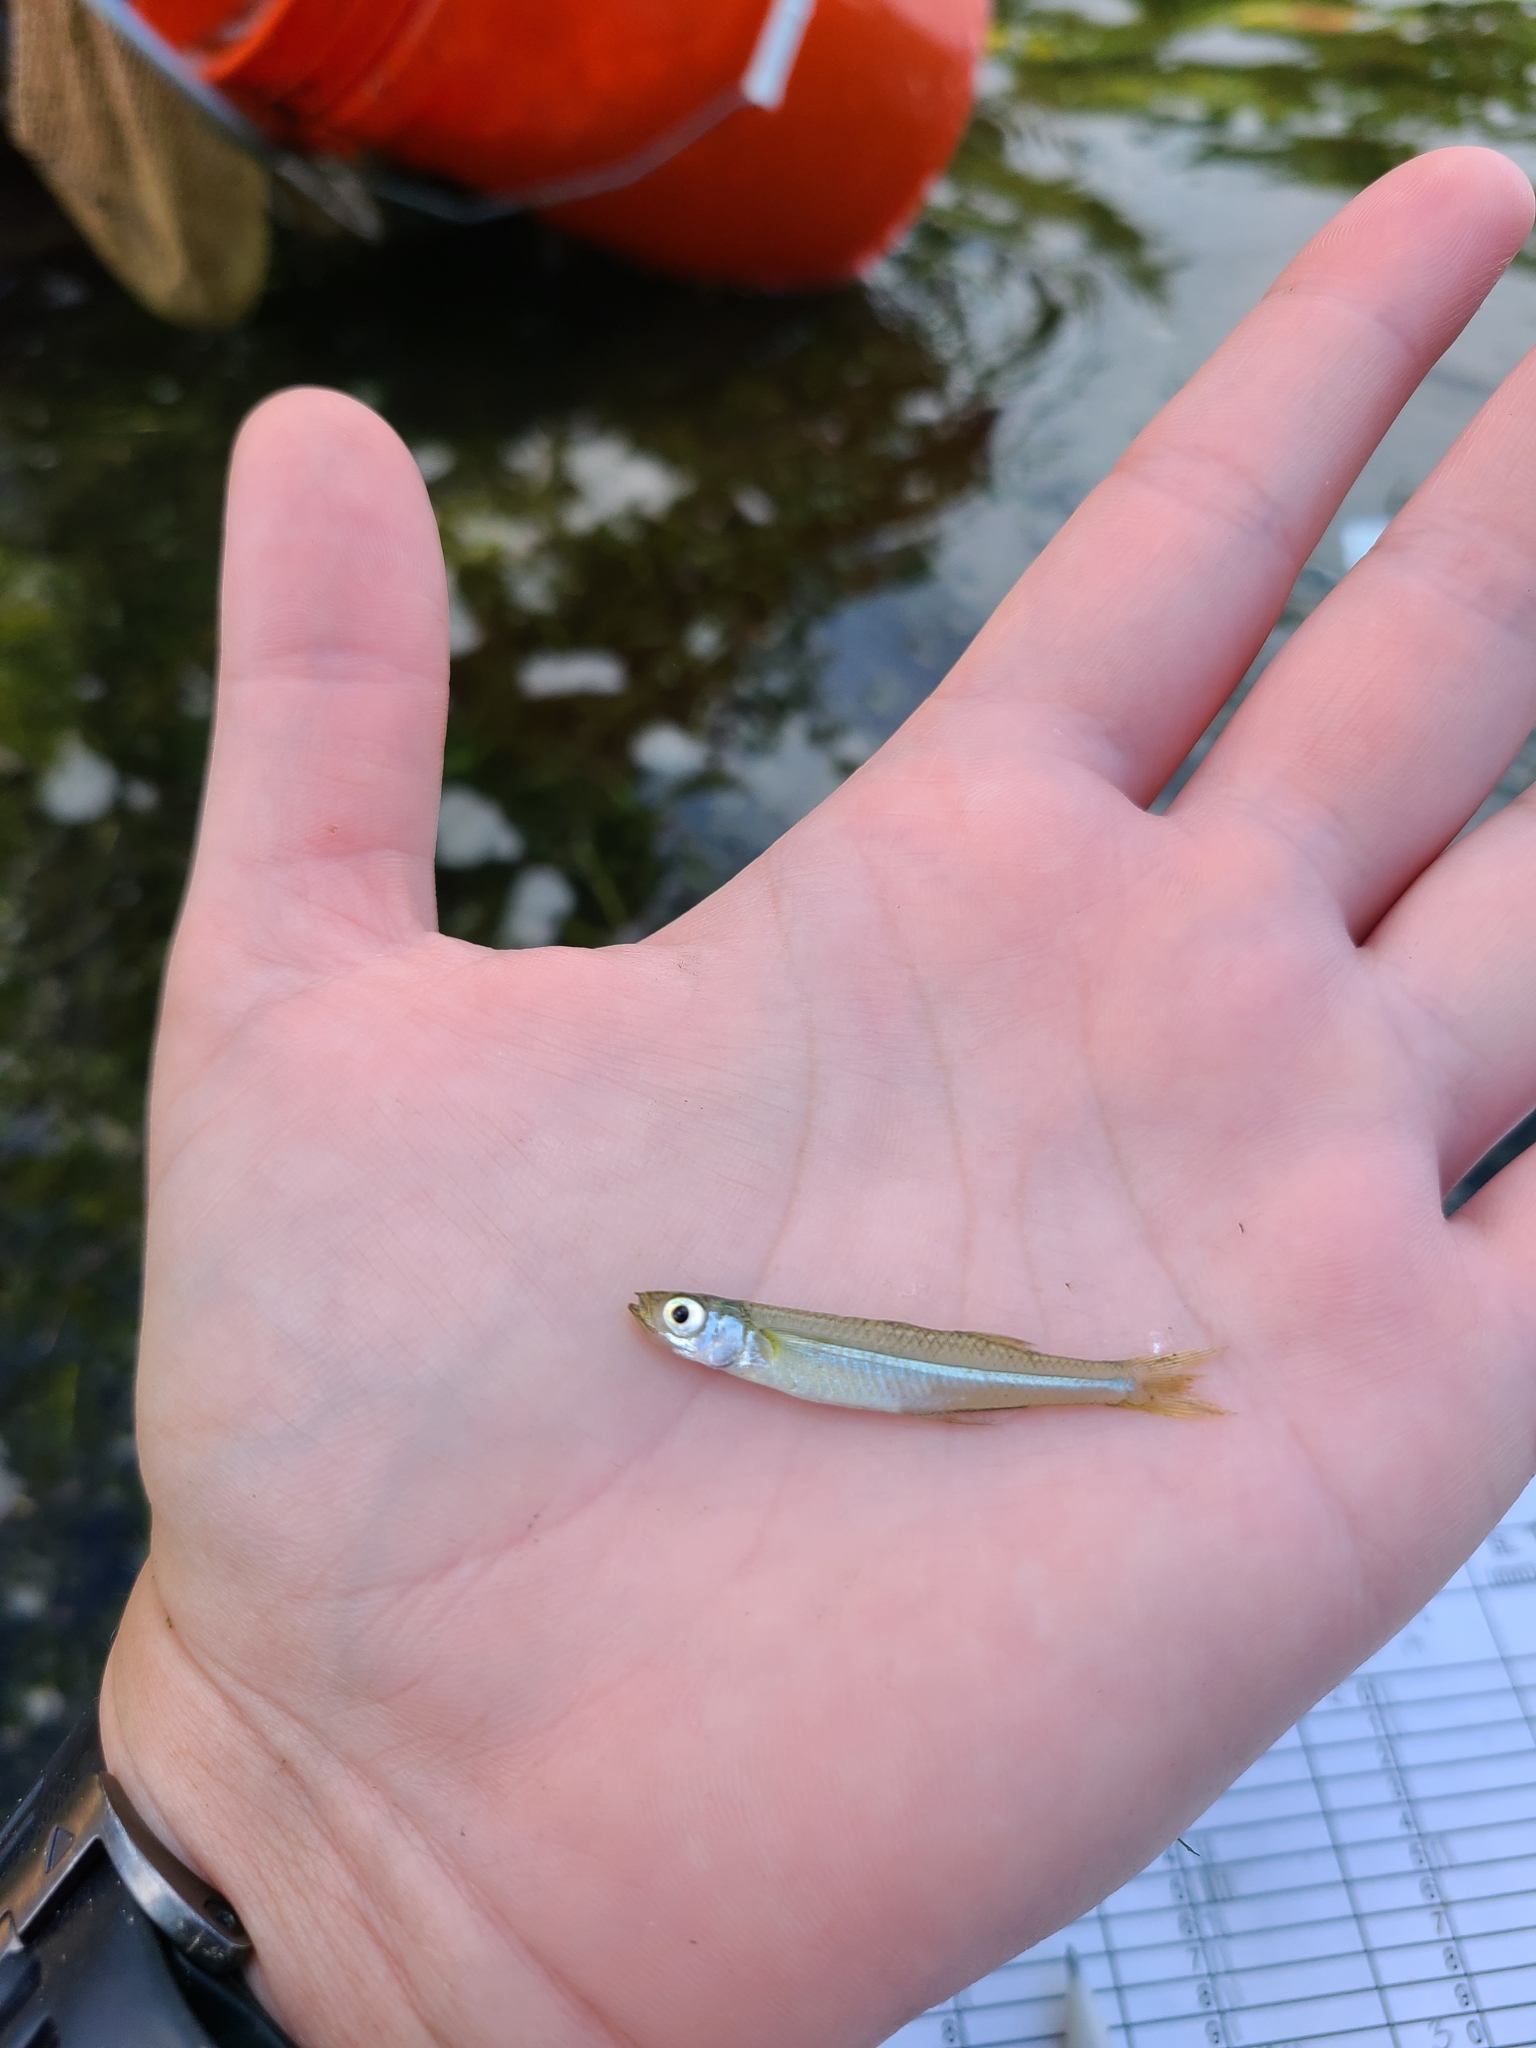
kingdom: Animalia
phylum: Chordata
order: Atheriniformes
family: Atherinopsidae
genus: Menidia
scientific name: Menidia beryllina
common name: Inland silverside
